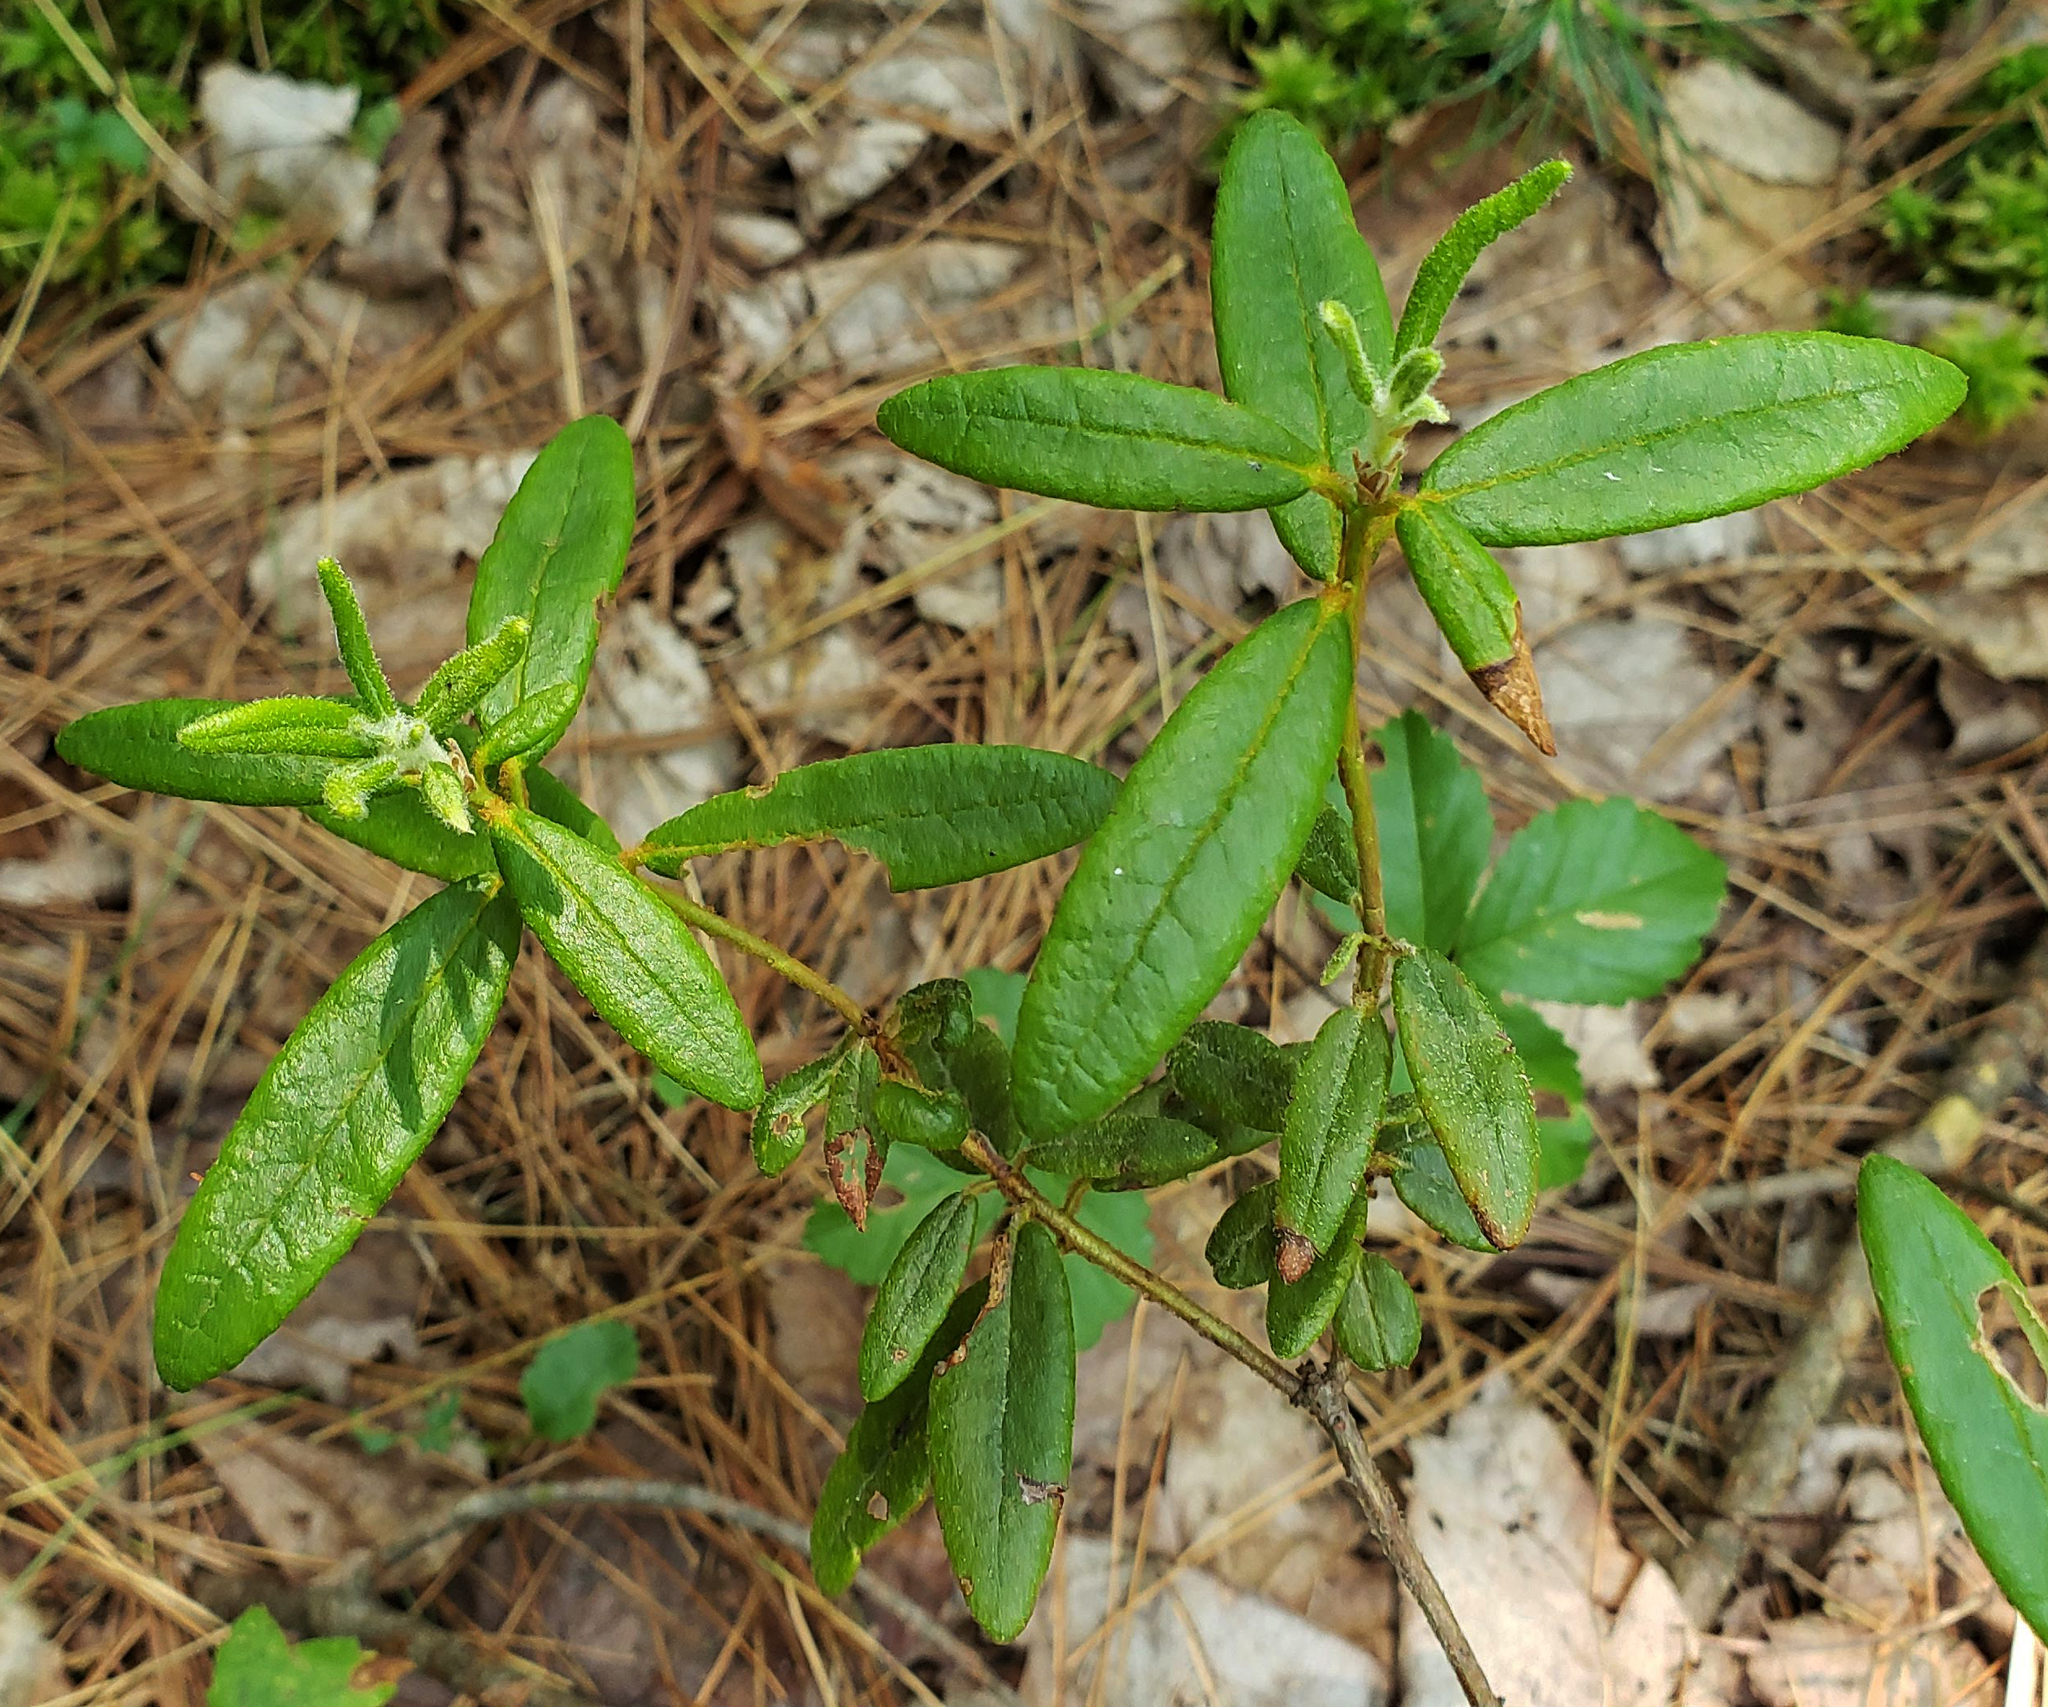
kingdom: Plantae
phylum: Tracheophyta
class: Magnoliopsida
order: Ericales
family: Ericaceae
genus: Rhododendron
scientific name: Rhododendron groenlandicum
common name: Bog labrador tea
